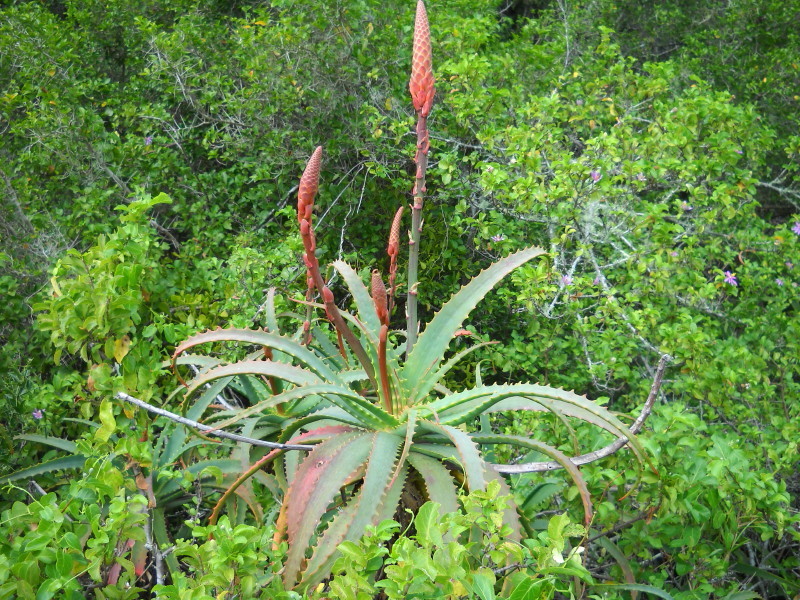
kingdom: Plantae
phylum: Tracheophyta
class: Liliopsida
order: Asparagales
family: Asphodelaceae
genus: Aloe
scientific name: Aloe arborescens
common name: Candelabra aloe
